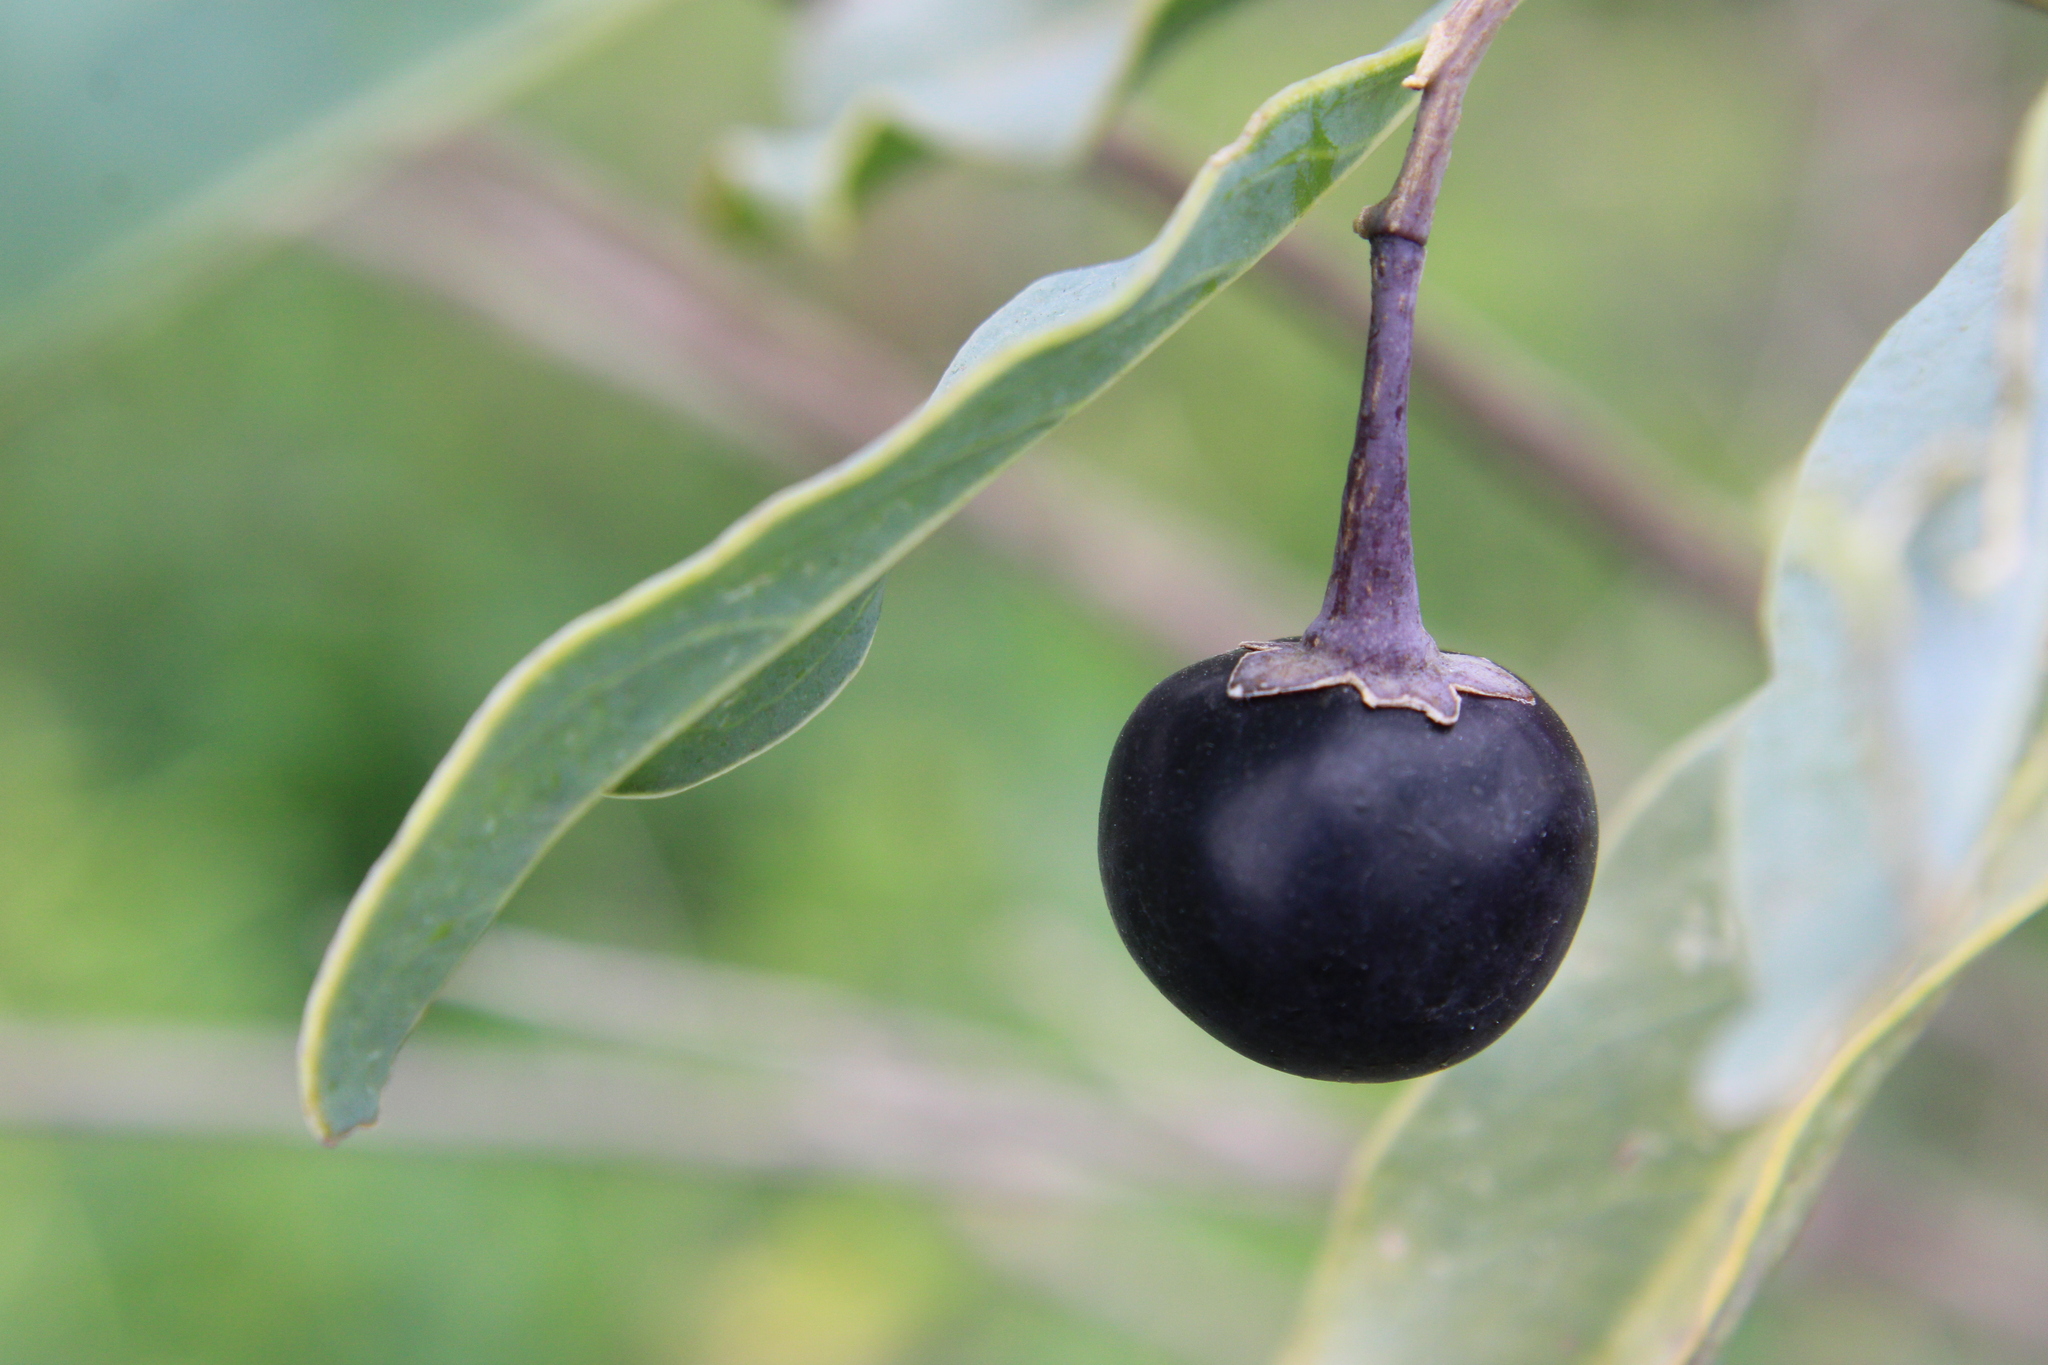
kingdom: Plantae
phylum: Tracheophyta
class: Magnoliopsida
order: Solanales
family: Solanaceae
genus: Solanum
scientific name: Solanum glaucophyllum
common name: Waxyleaf nightshade
